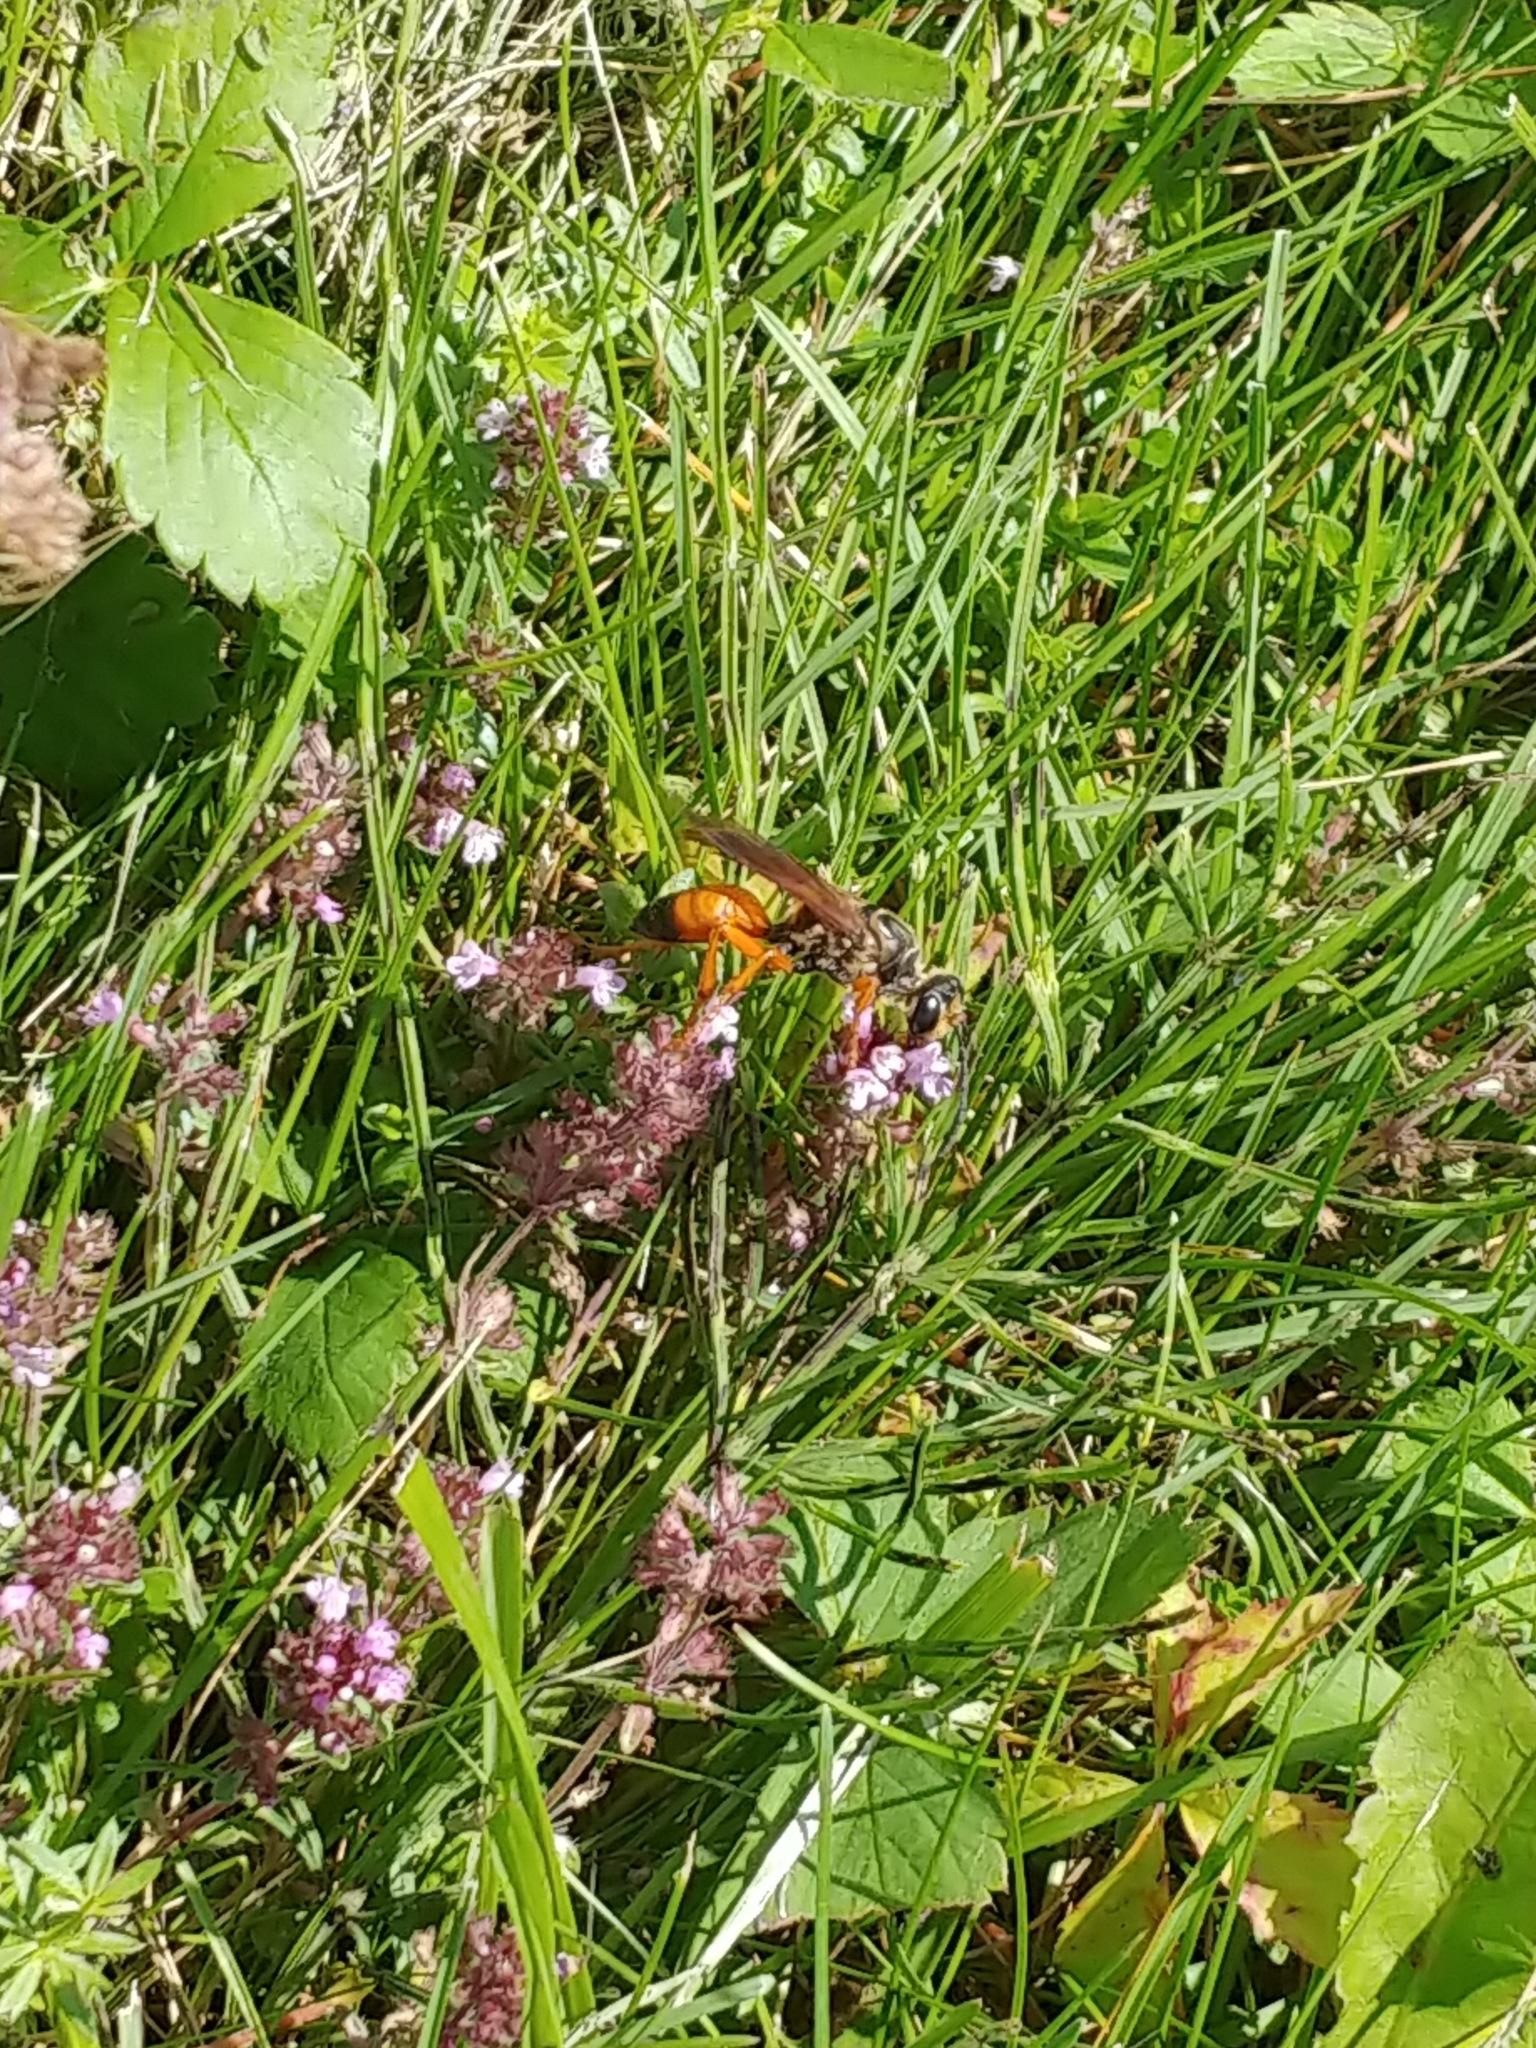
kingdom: Animalia
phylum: Arthropoda
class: Insecta
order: Hymenoptera
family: Sphecidae
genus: Sphex
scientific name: Sphex ichneumoneus
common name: Great golden digger wasp
